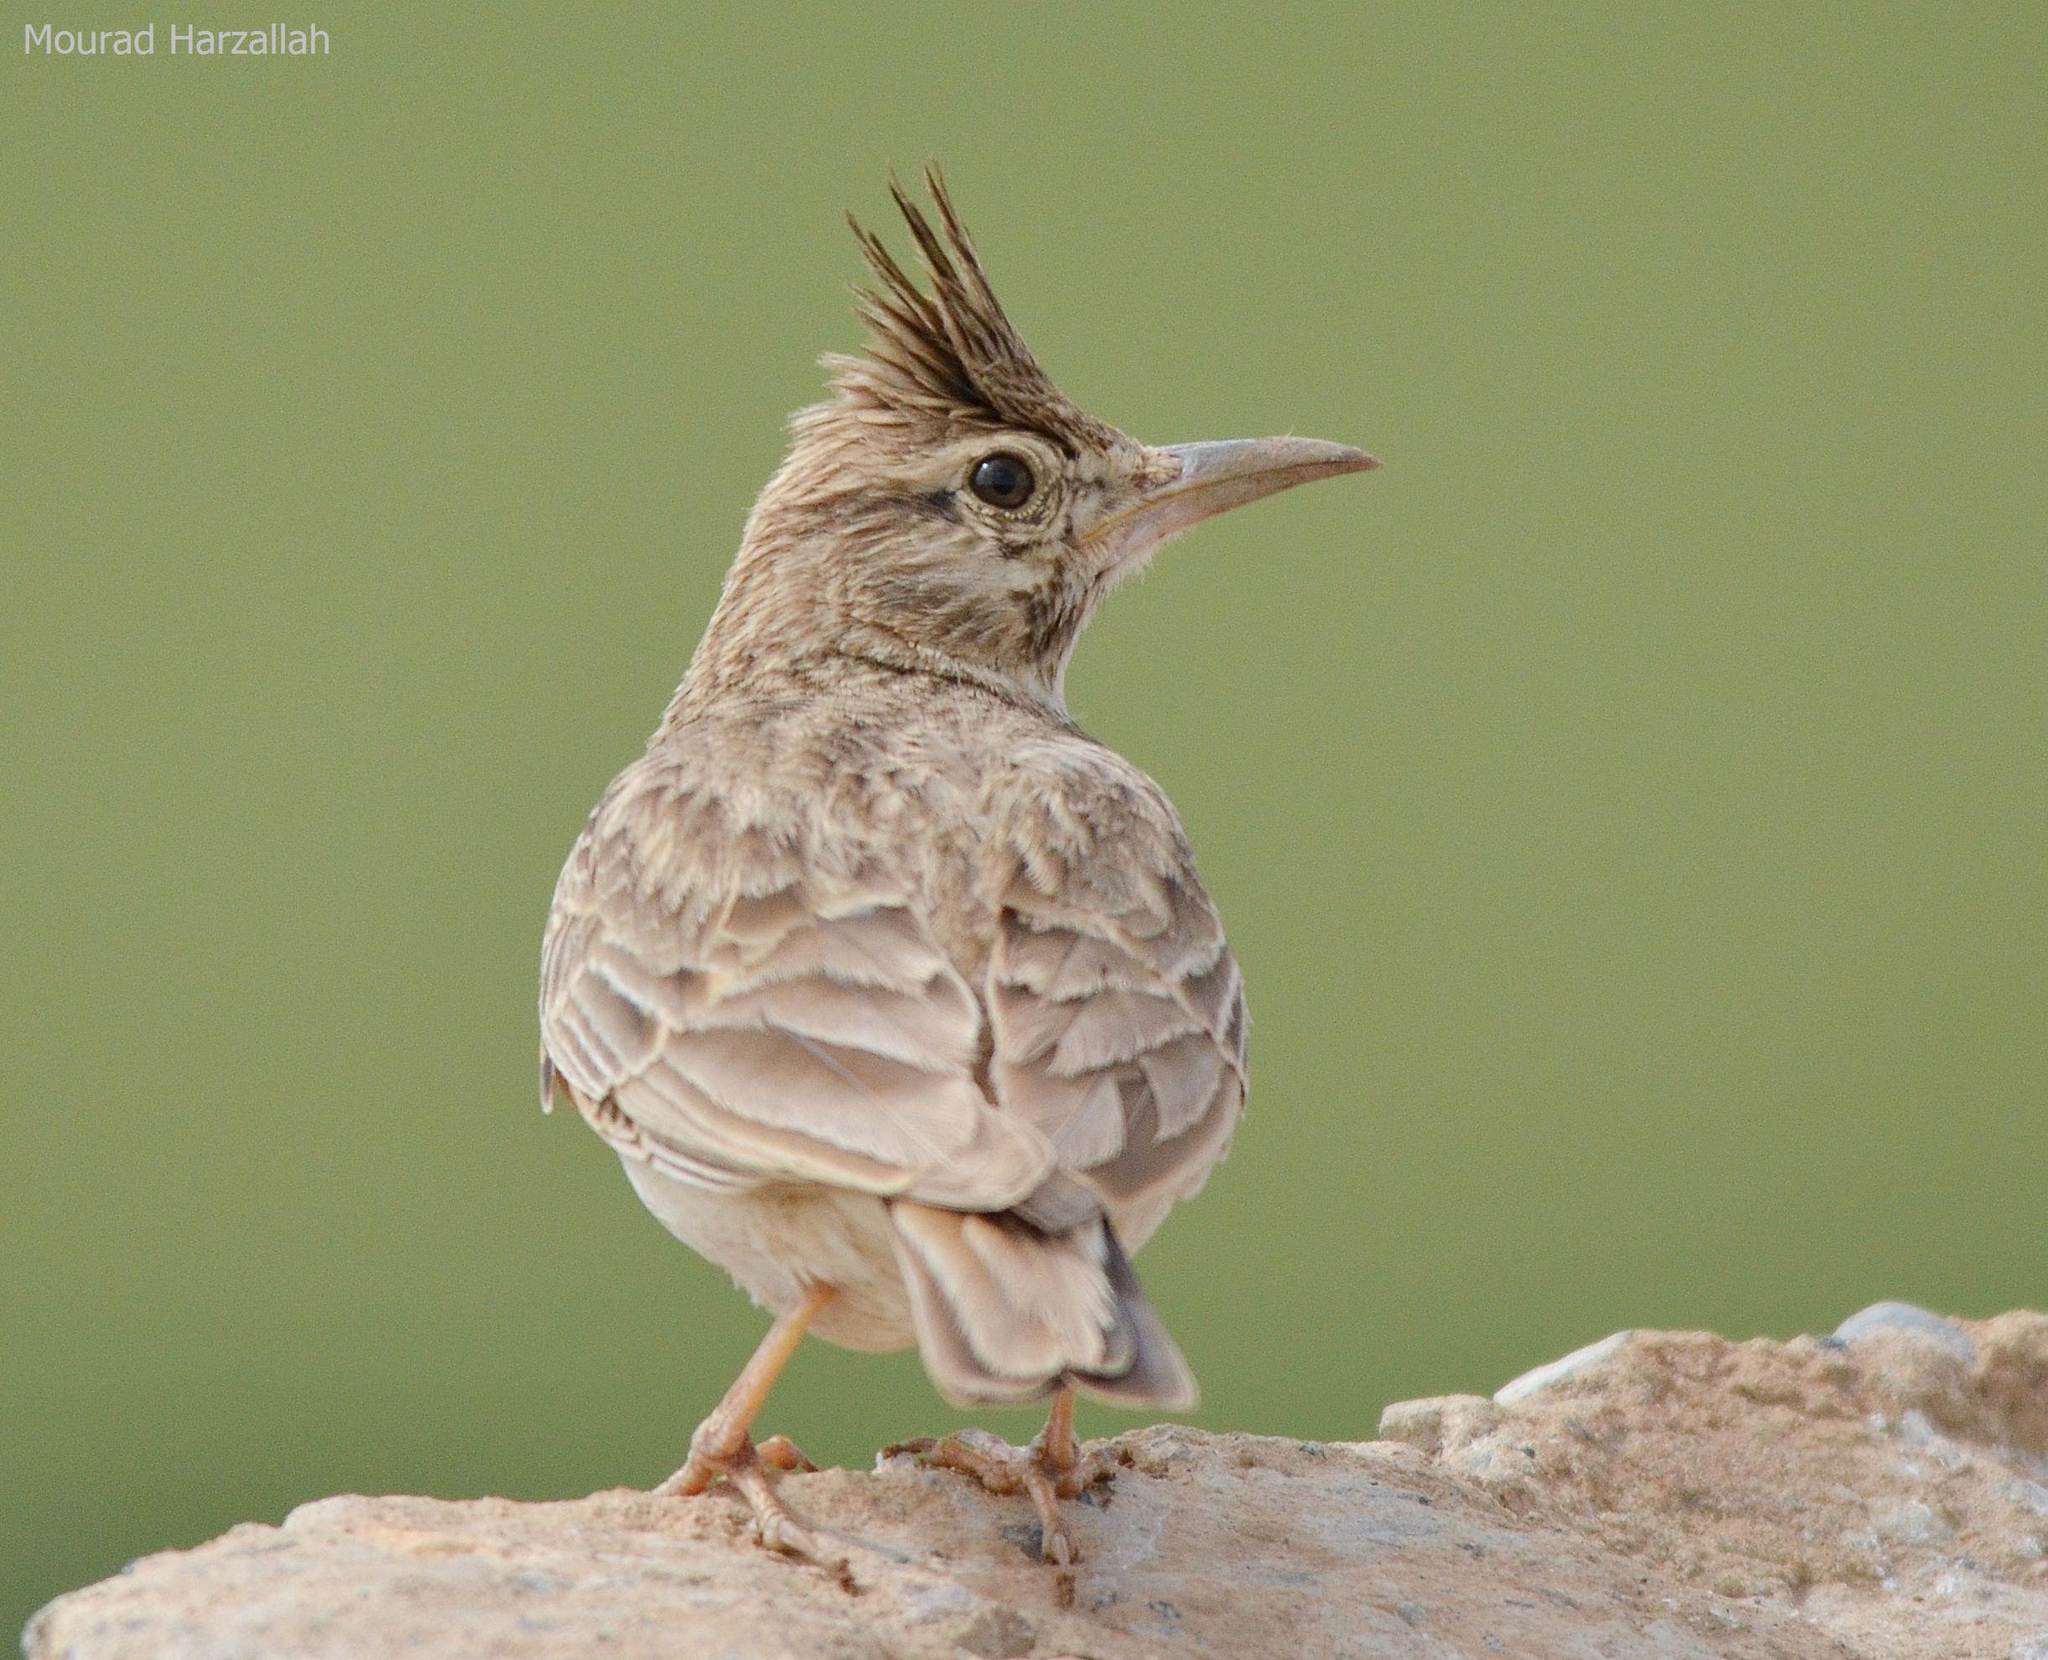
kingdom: Animalia
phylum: Chordata
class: Aves
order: Passeriformes
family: Alaudidae
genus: Galerida
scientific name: Galerida cristata
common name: Crested lark
